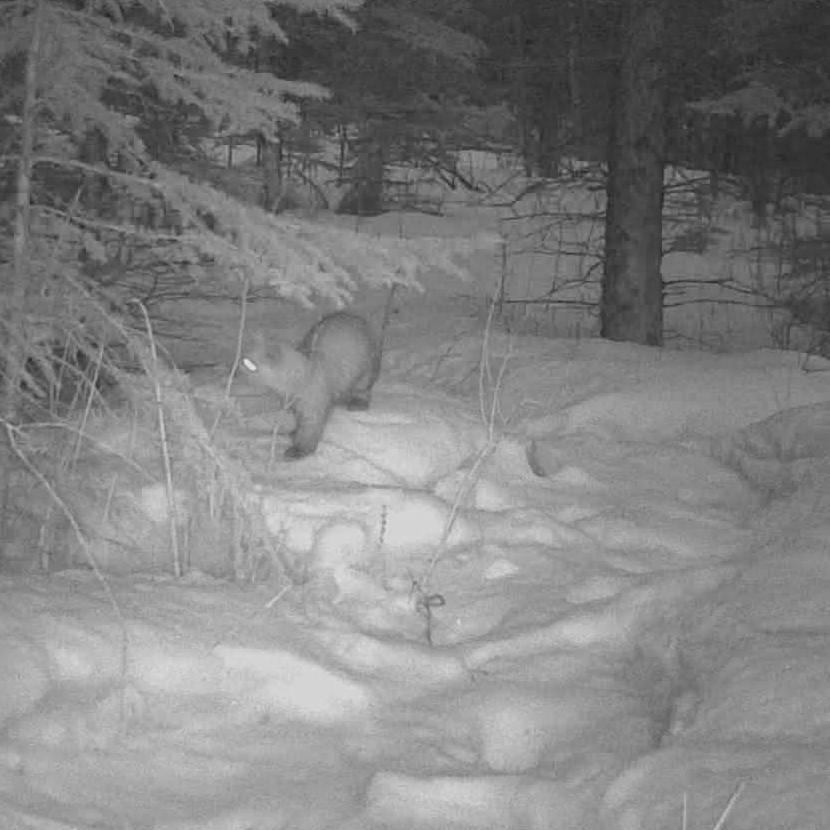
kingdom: Animalia
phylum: Chordata
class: Mammalia
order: Carnivora
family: Mustelidae
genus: Martes
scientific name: Martes americana
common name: American marten
